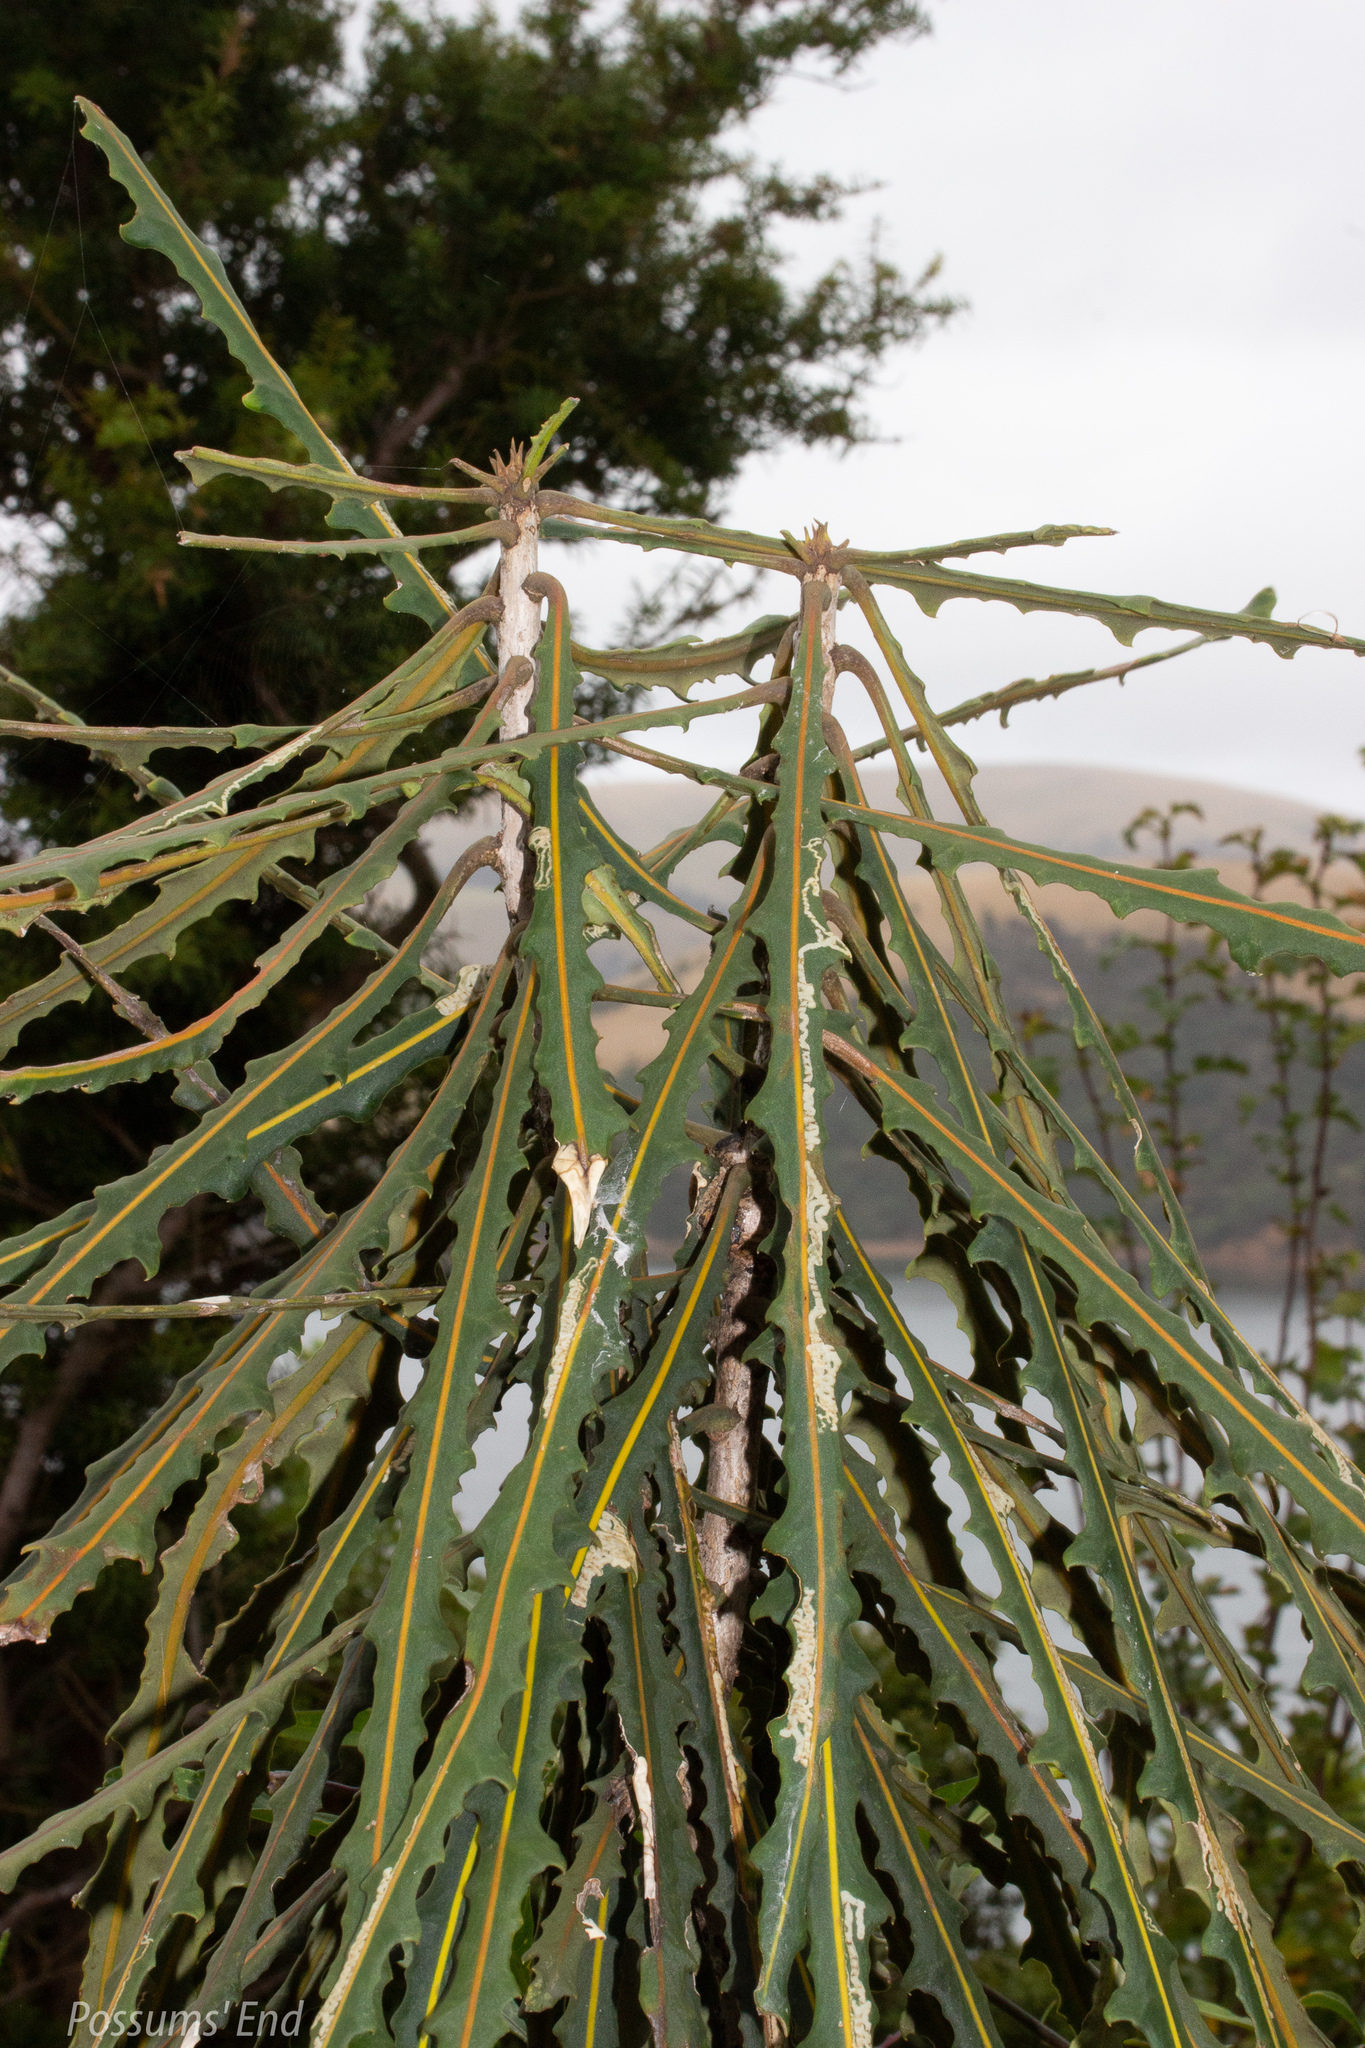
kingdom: Plantae
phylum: Tracheophyta
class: Magnoliopsida
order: Apiales
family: Araliaceae
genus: Pseudopanax
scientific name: Pseudopanax ferox
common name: Fierce lancewood
